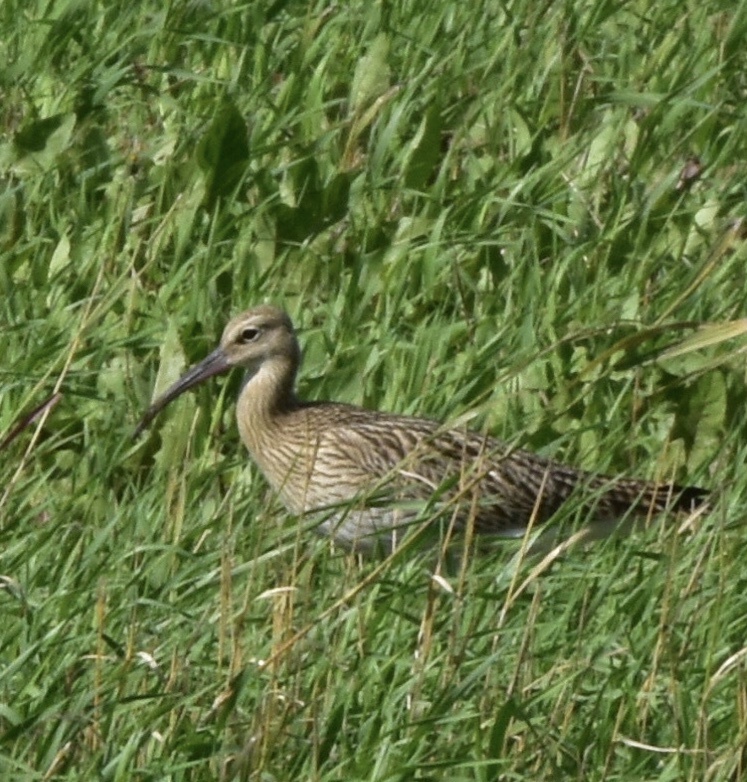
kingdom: Animalia
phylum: Chordata
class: Aves
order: Charadriiformes
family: Scolopacidae
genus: Numenius
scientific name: Numenius arquata
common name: Eurasian curlew
